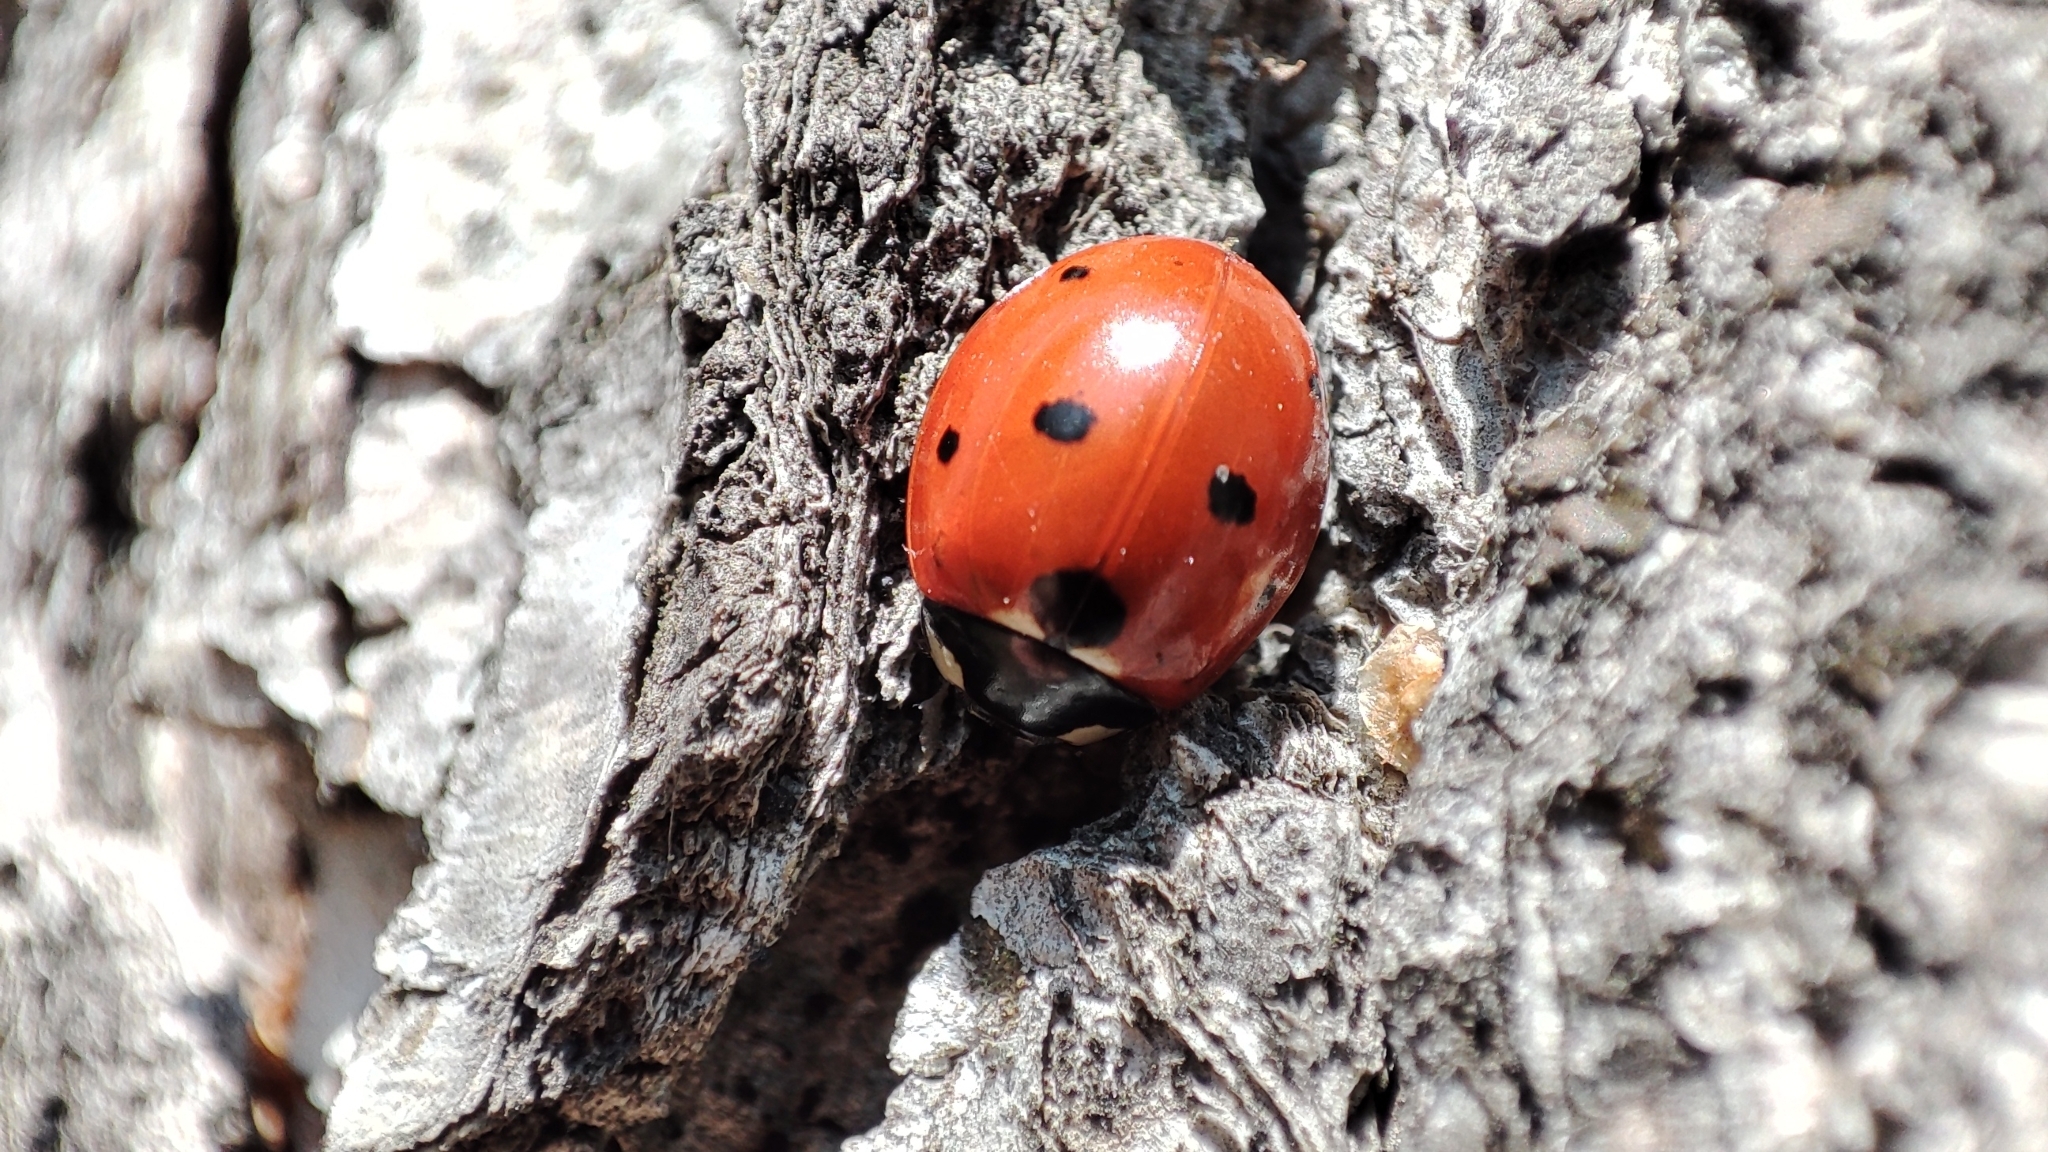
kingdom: Animalia
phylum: Arthropoda
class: Insecta
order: Coleoptera
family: Coccinellidae
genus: Coccinella
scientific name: Coccinella septempunctata
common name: Sevenspotted lady beetle
